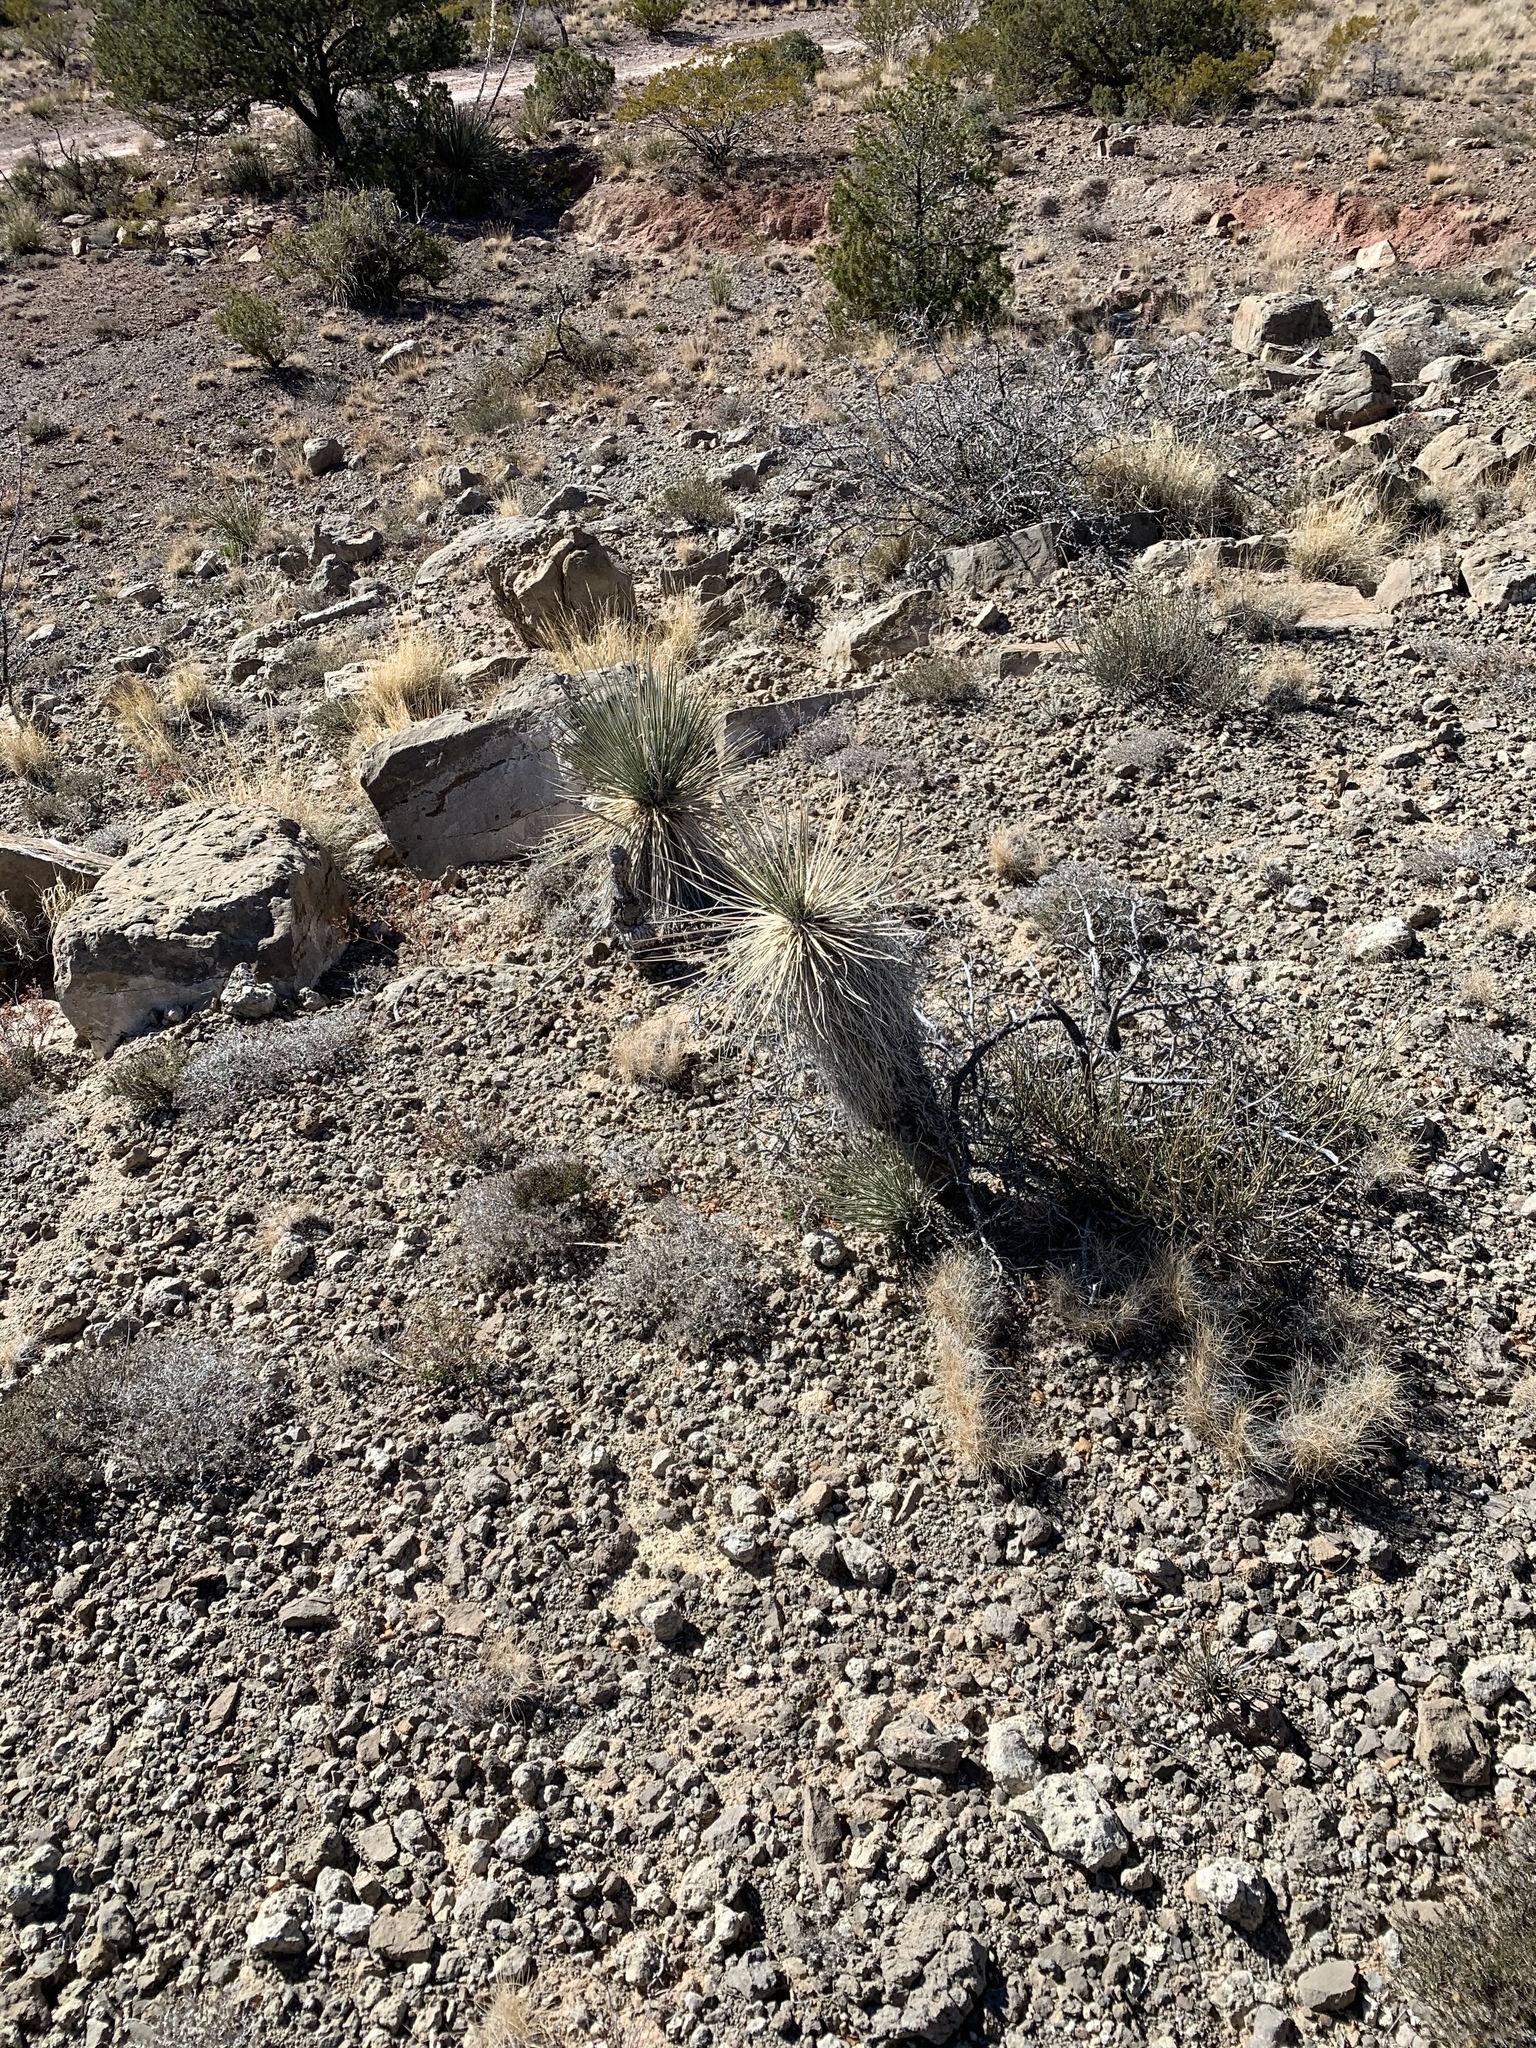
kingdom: Plantae
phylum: Tracheophyta
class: Liliopsida
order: Asparagales
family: Asparagaceae
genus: Yucca
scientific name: Yucca elata
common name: Palmella
